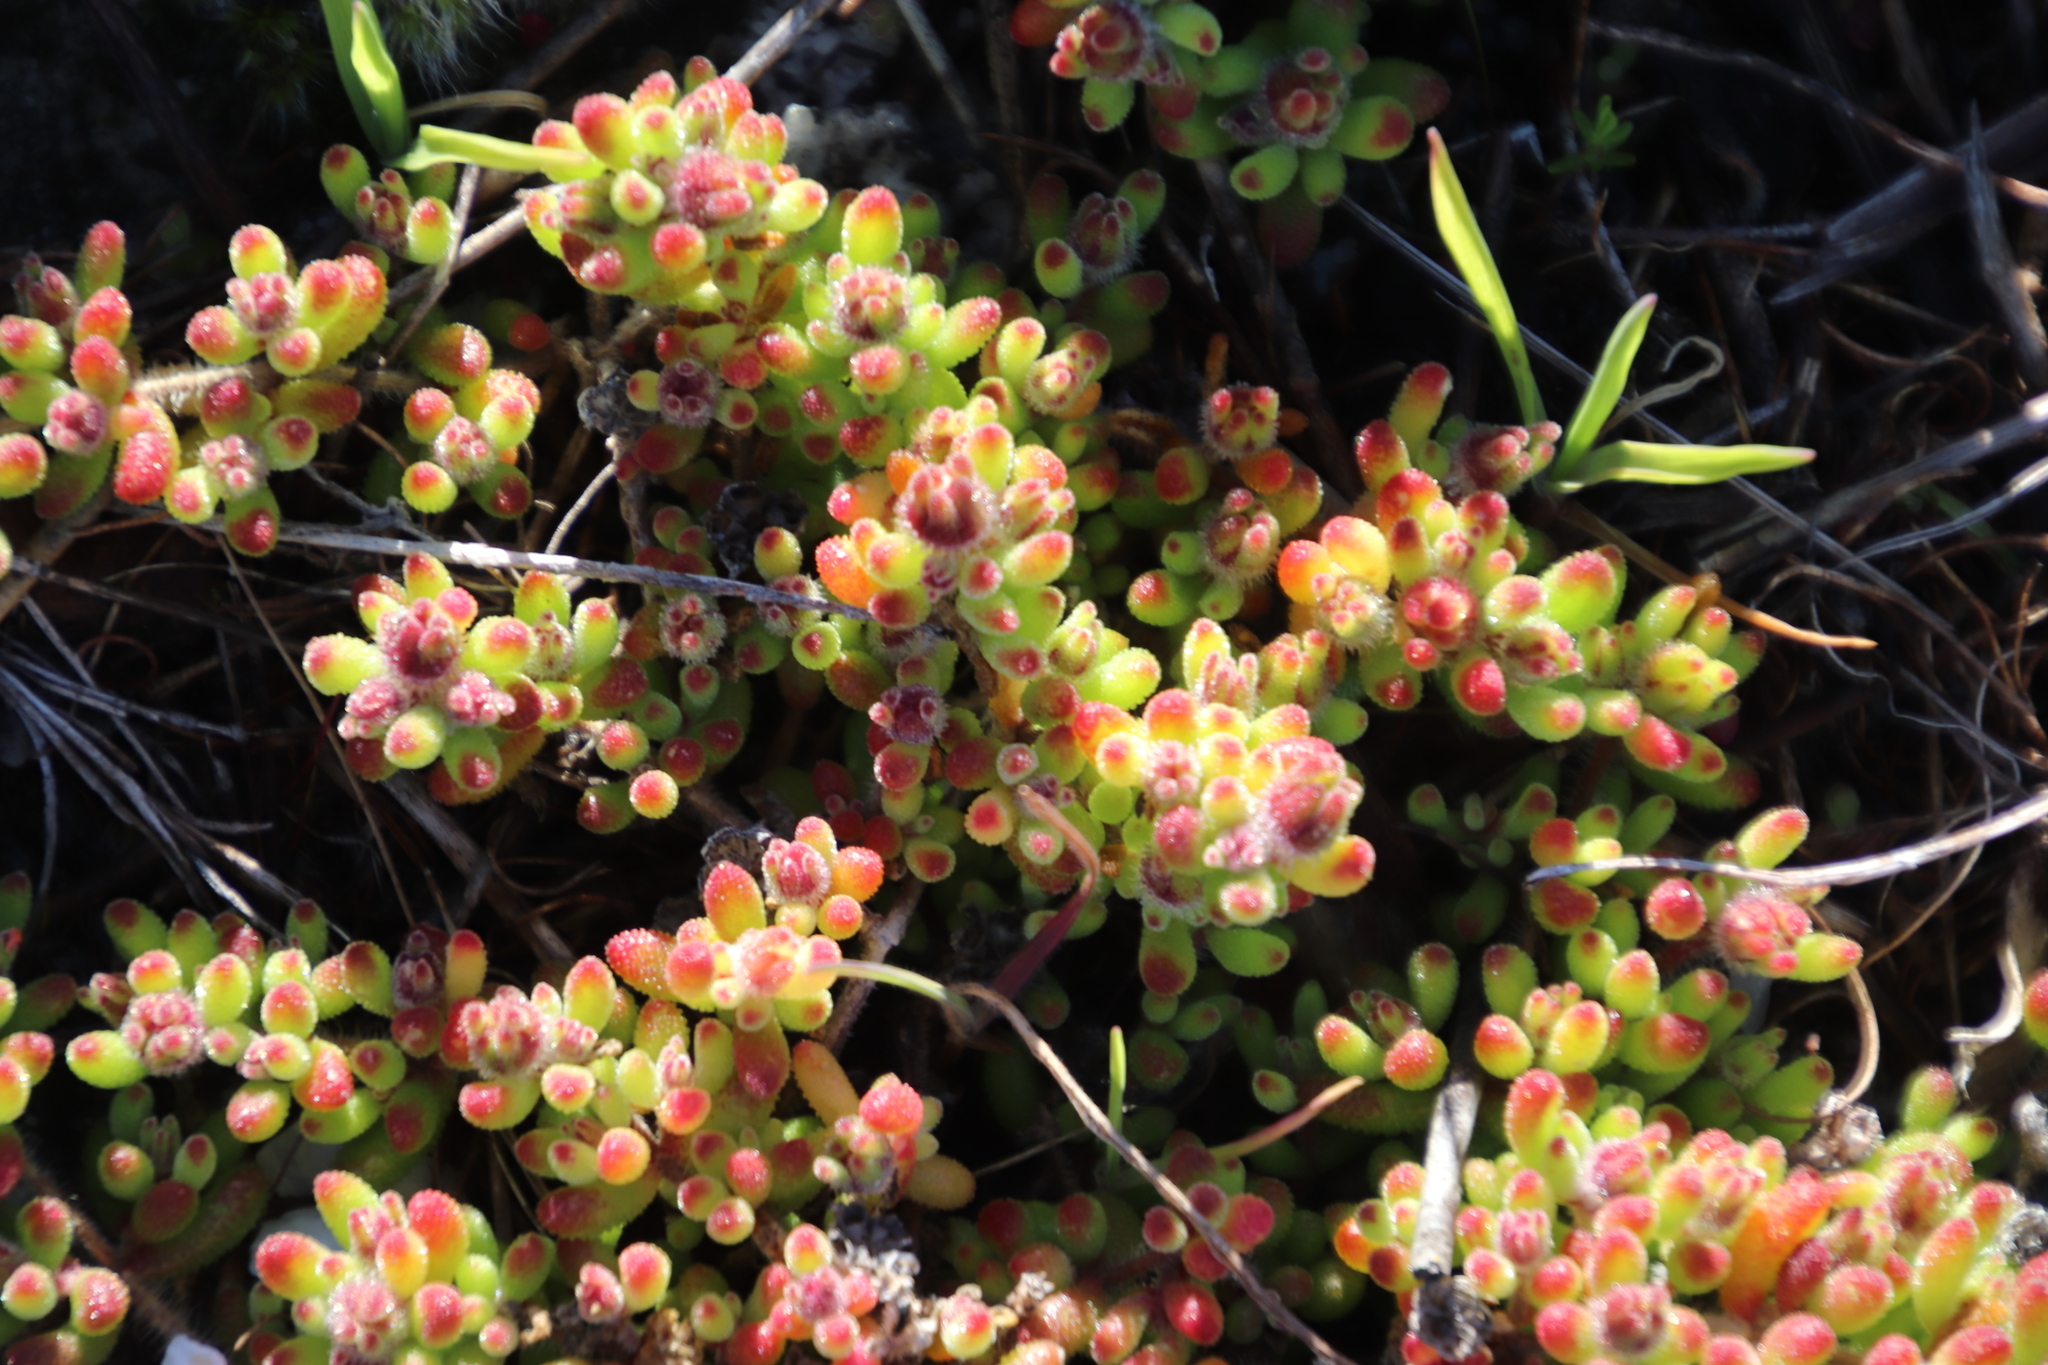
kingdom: Plantae
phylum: Tracheophyta
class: Magnoliopsida
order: Caryophyllales
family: Aizoaceae
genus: Drosanthemum
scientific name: Drosanthemum stokoei
